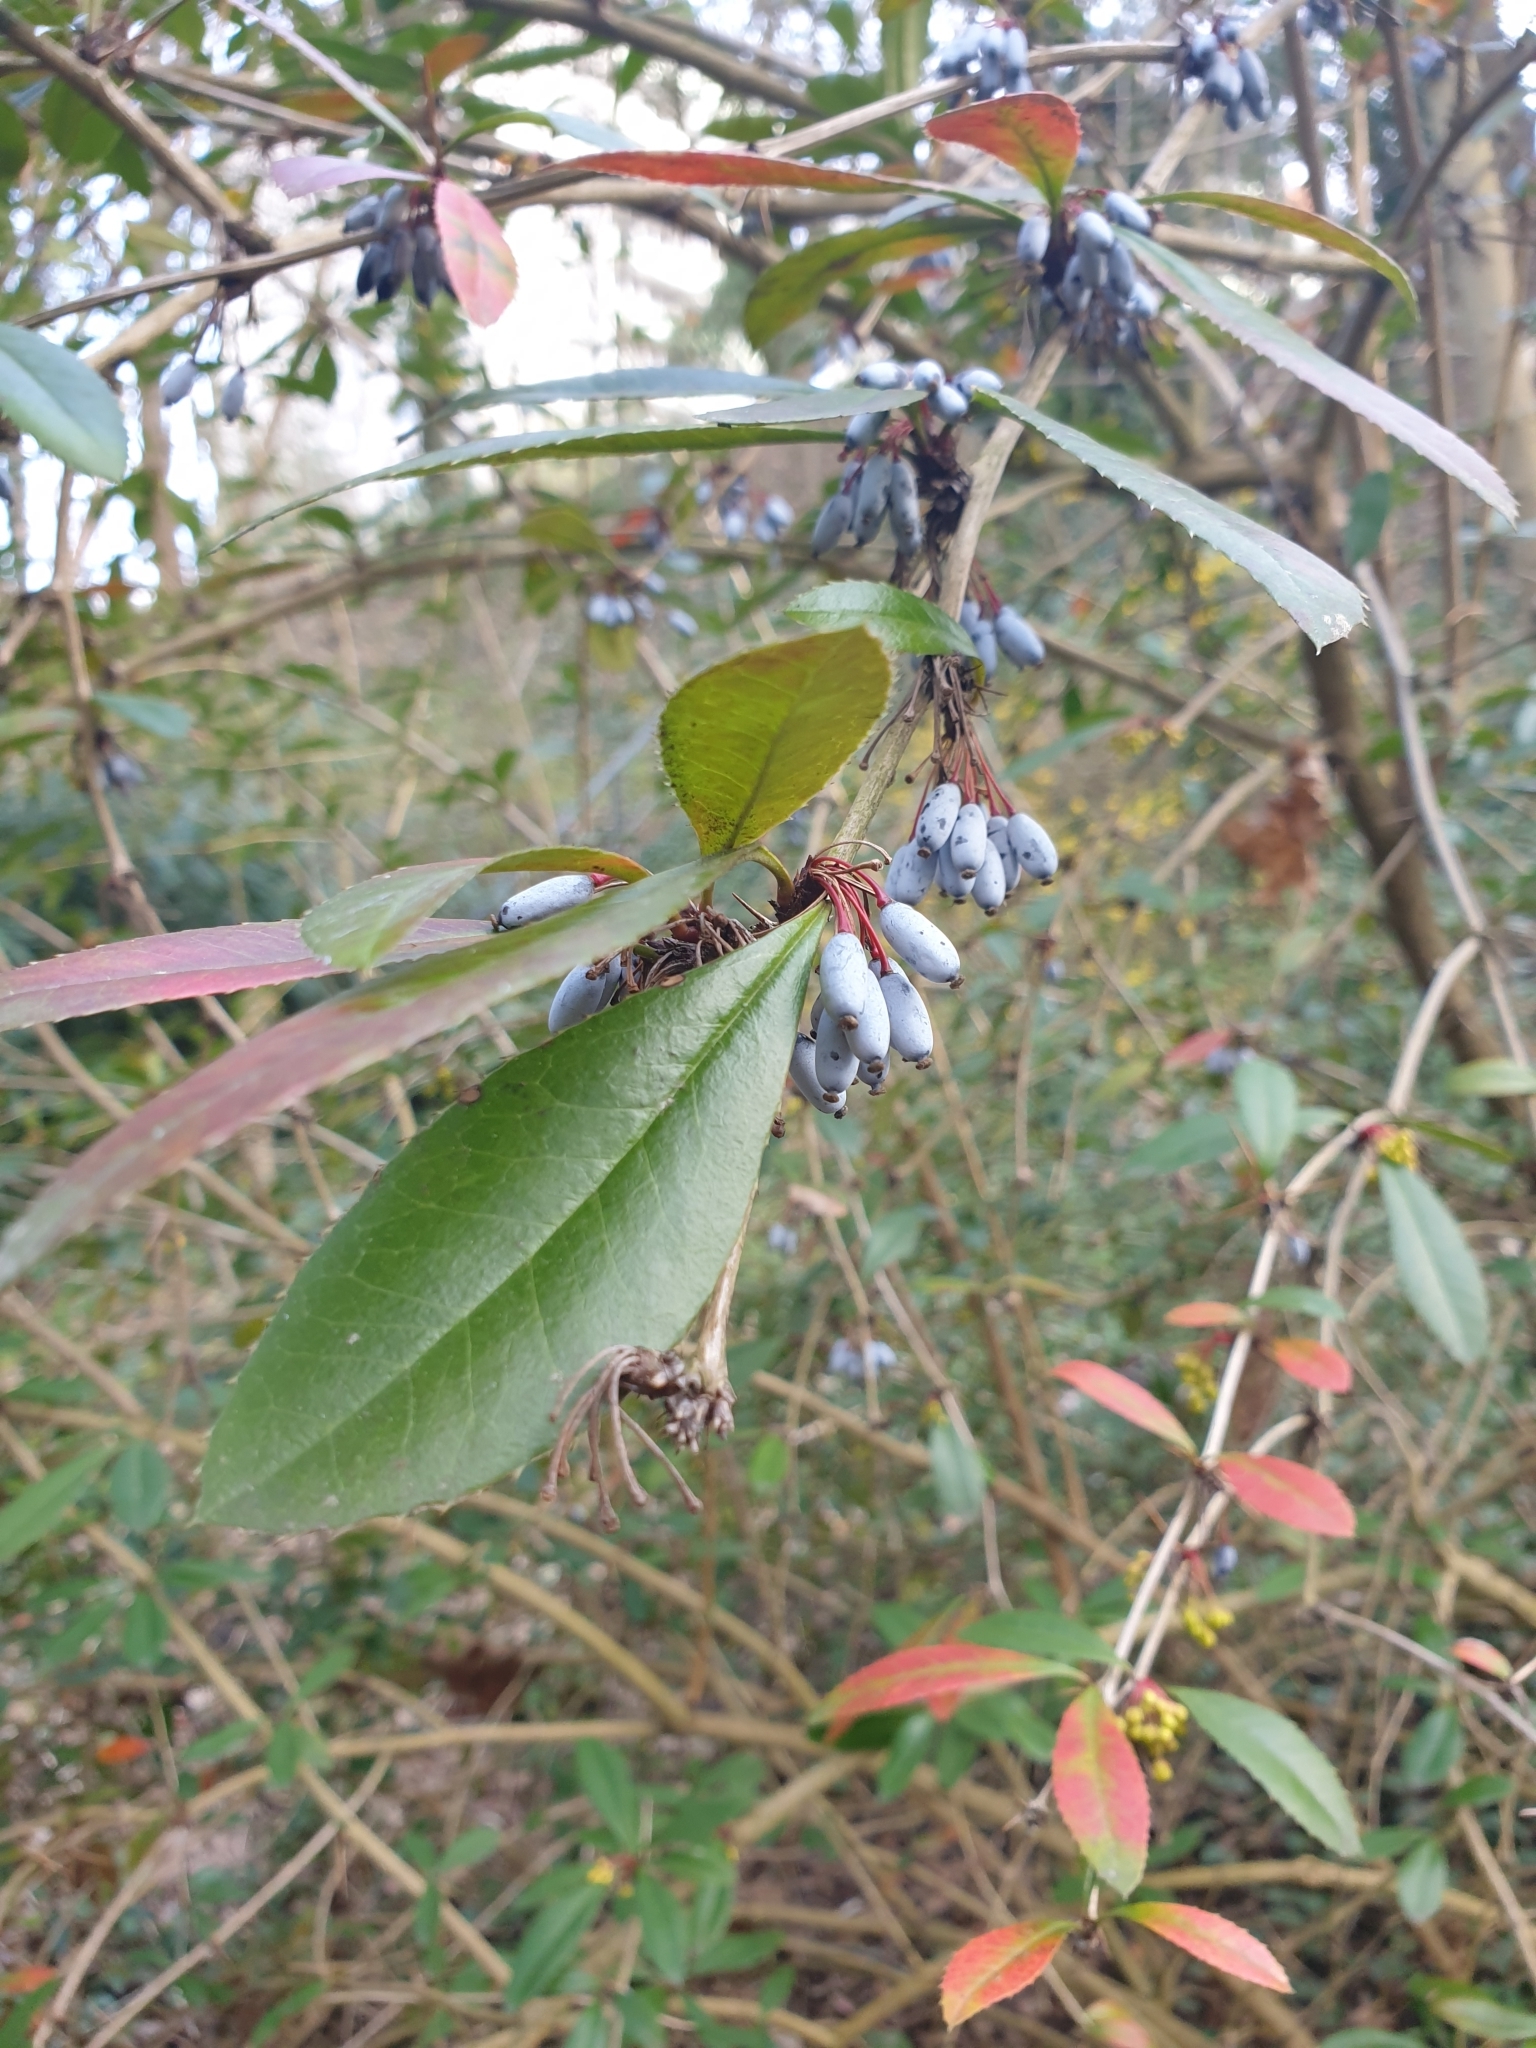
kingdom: Plantae
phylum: Tracheophyta
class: Magnoliopsida
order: Ranunculales
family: Berberidaceae
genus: Berberis
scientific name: Berberis julianae
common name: Wintergreen barberry
